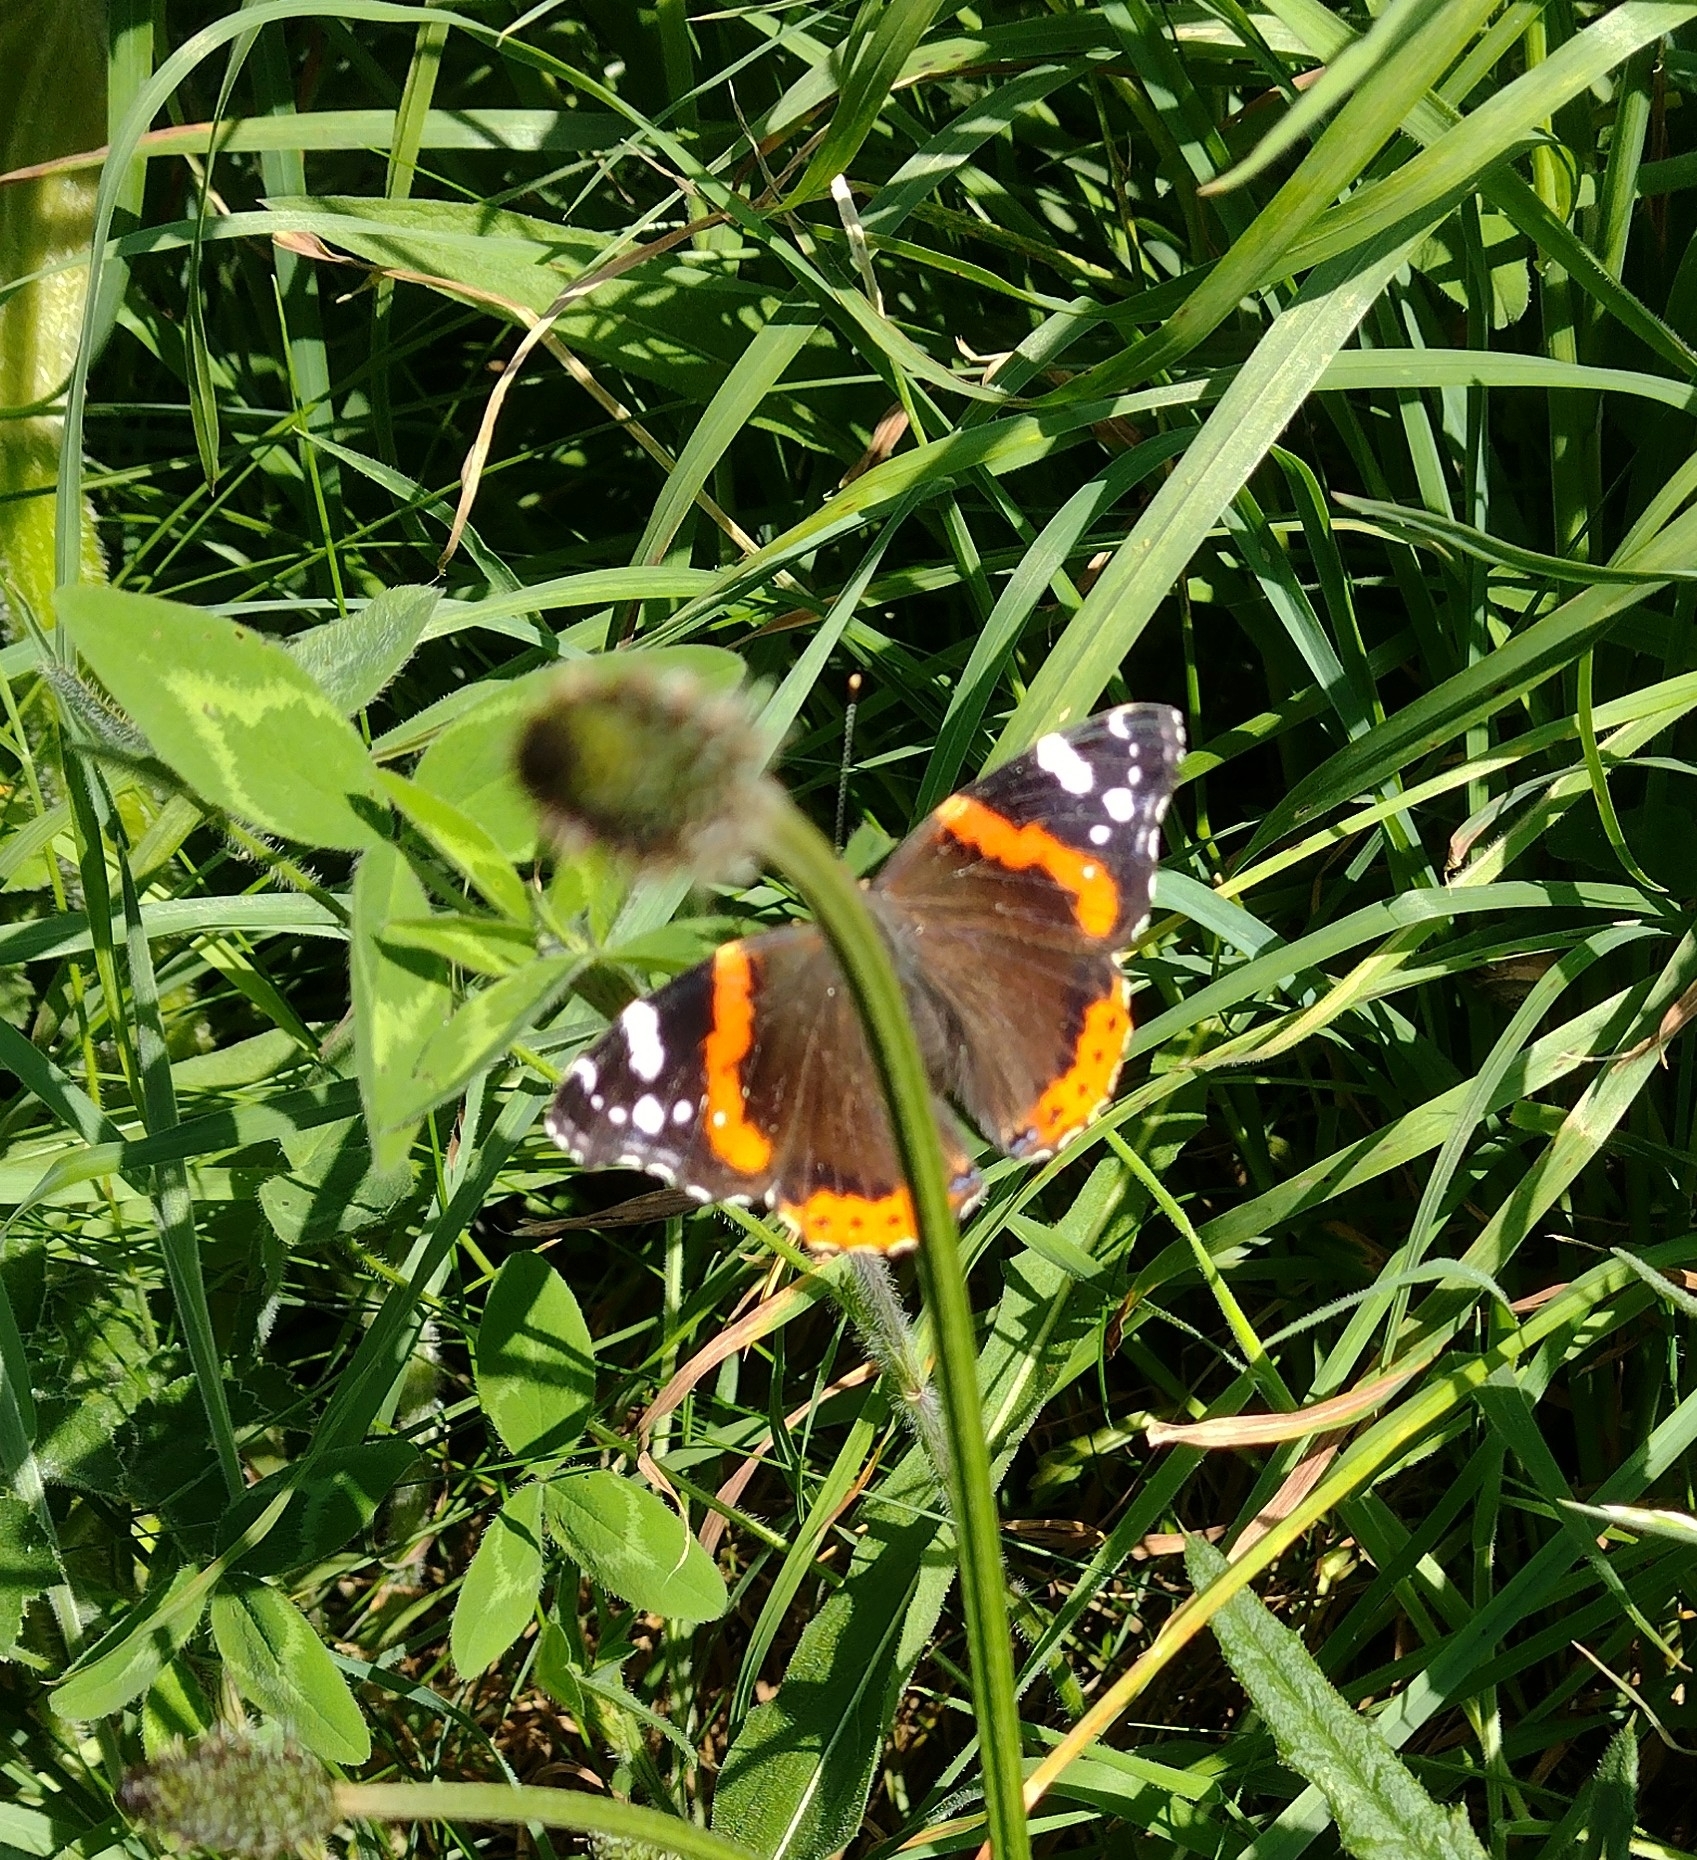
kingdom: Animalia
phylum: Arthropoda
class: Insecta
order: Lepidoptera
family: Nymphalidae
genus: Vanessa
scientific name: Vanessa atalanta
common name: Red admiral
